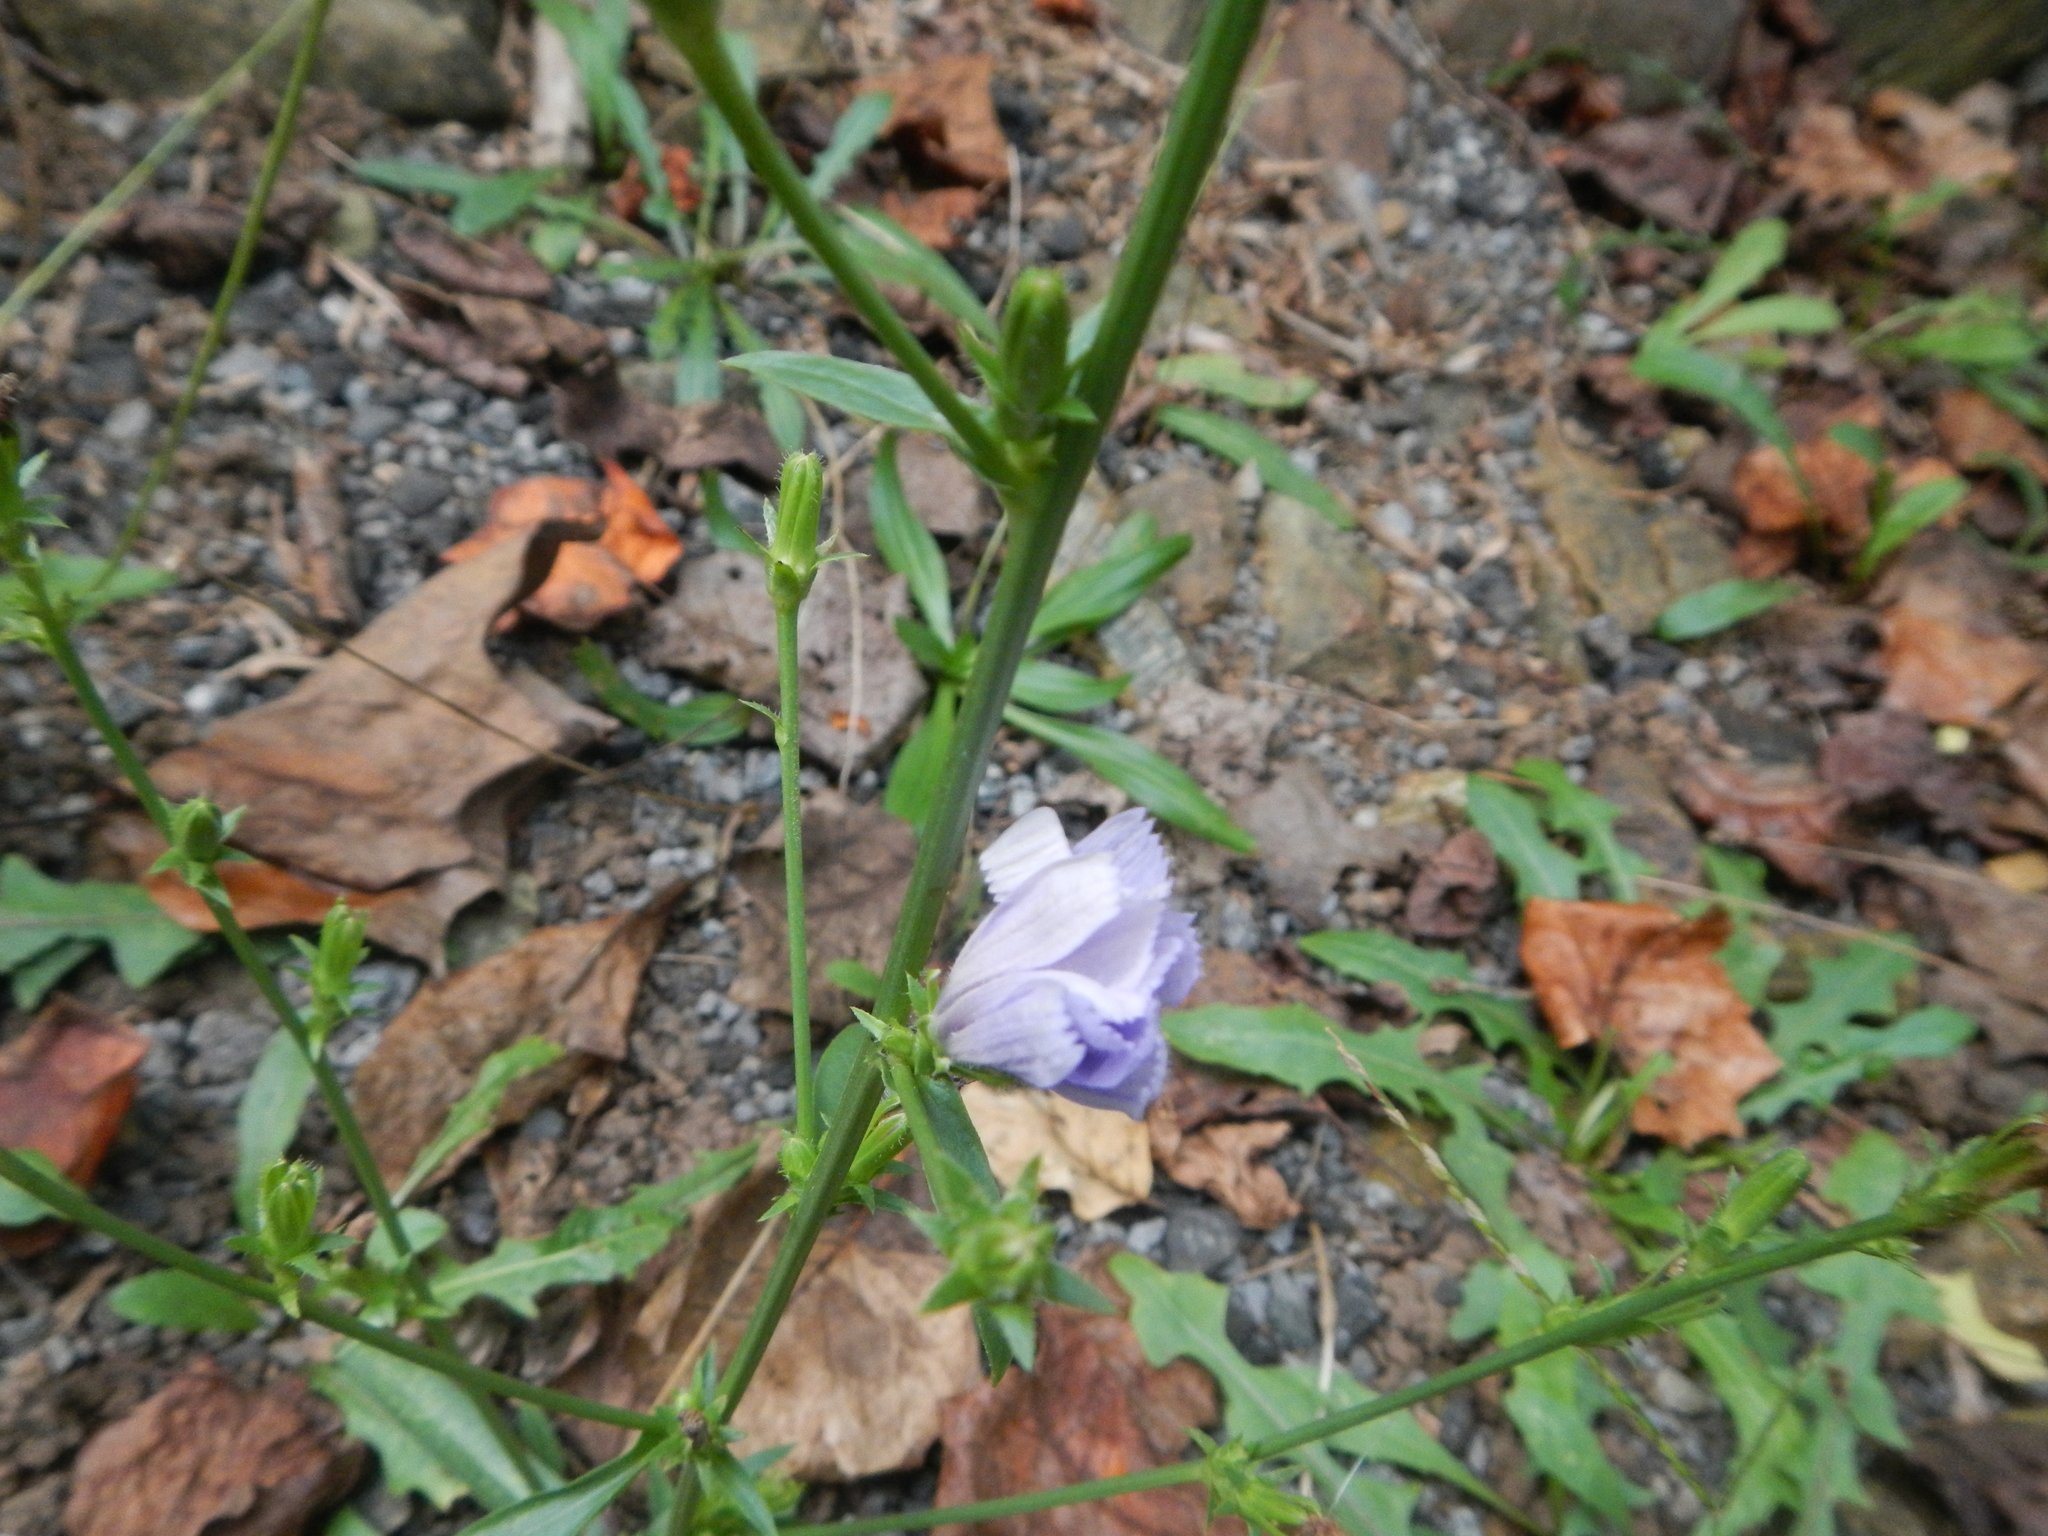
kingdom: Plantae
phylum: Tracheophyta
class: Magnoliopsida
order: Asterales
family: Asteraceae
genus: Cichorium
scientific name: Cichorium intybus
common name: Chicory
